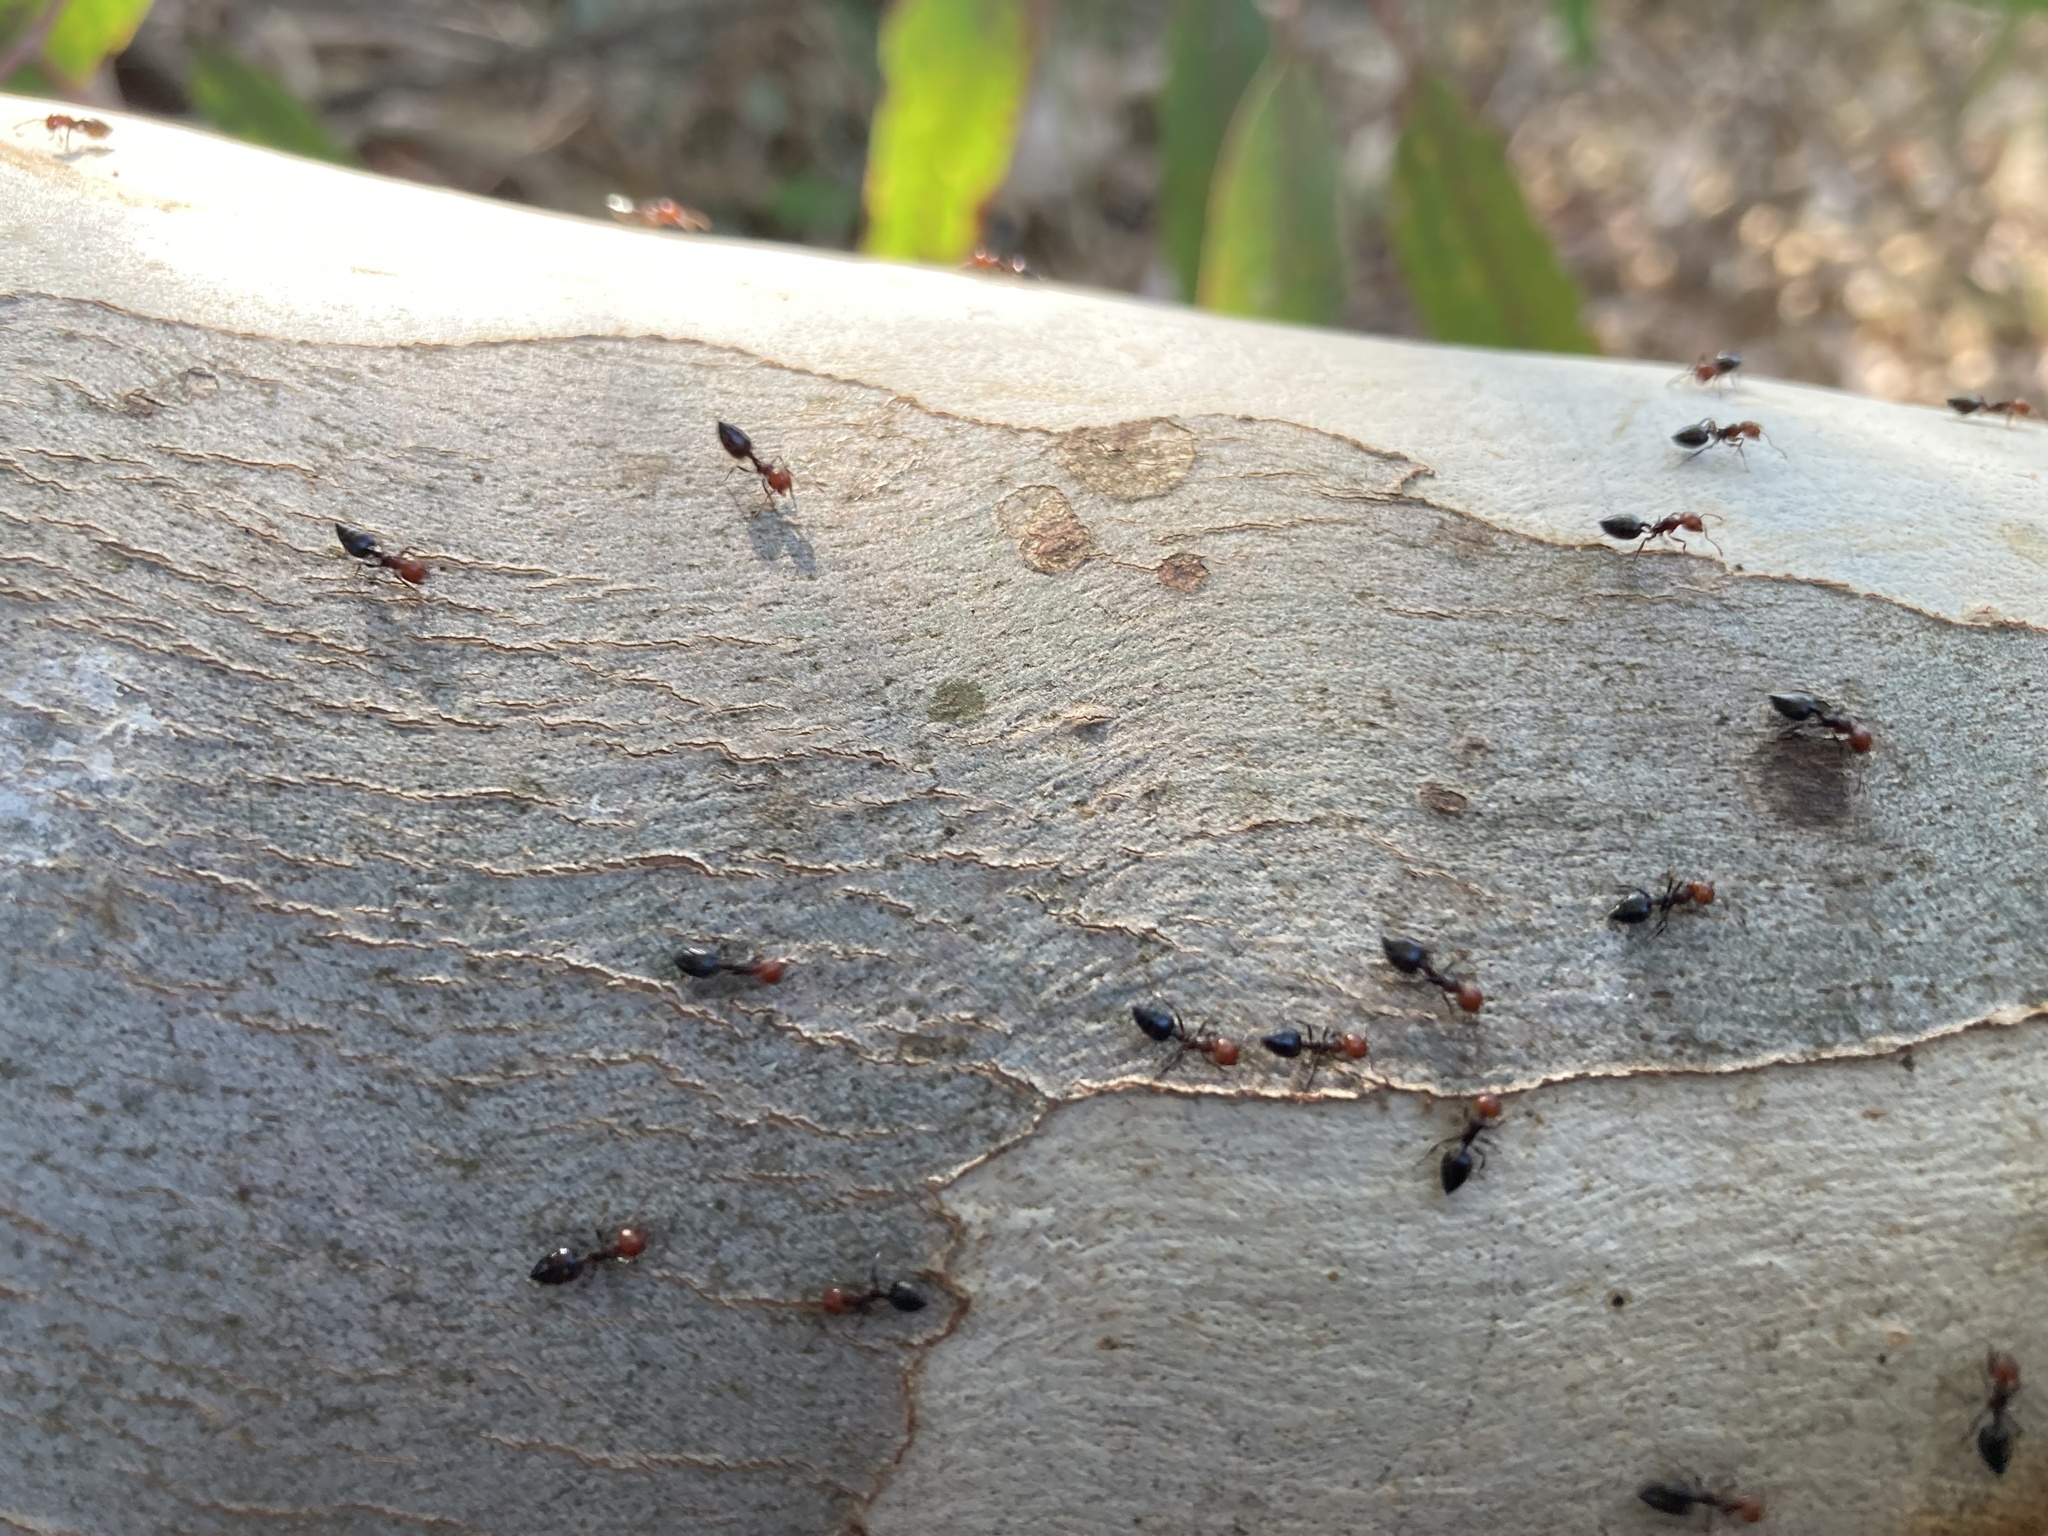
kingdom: Animalia
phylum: Arthropoda
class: Insecta
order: Hymenoptera
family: Formicidae
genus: Crematogaster
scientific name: Crematogaster scutellaris
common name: Fourmi du liège
